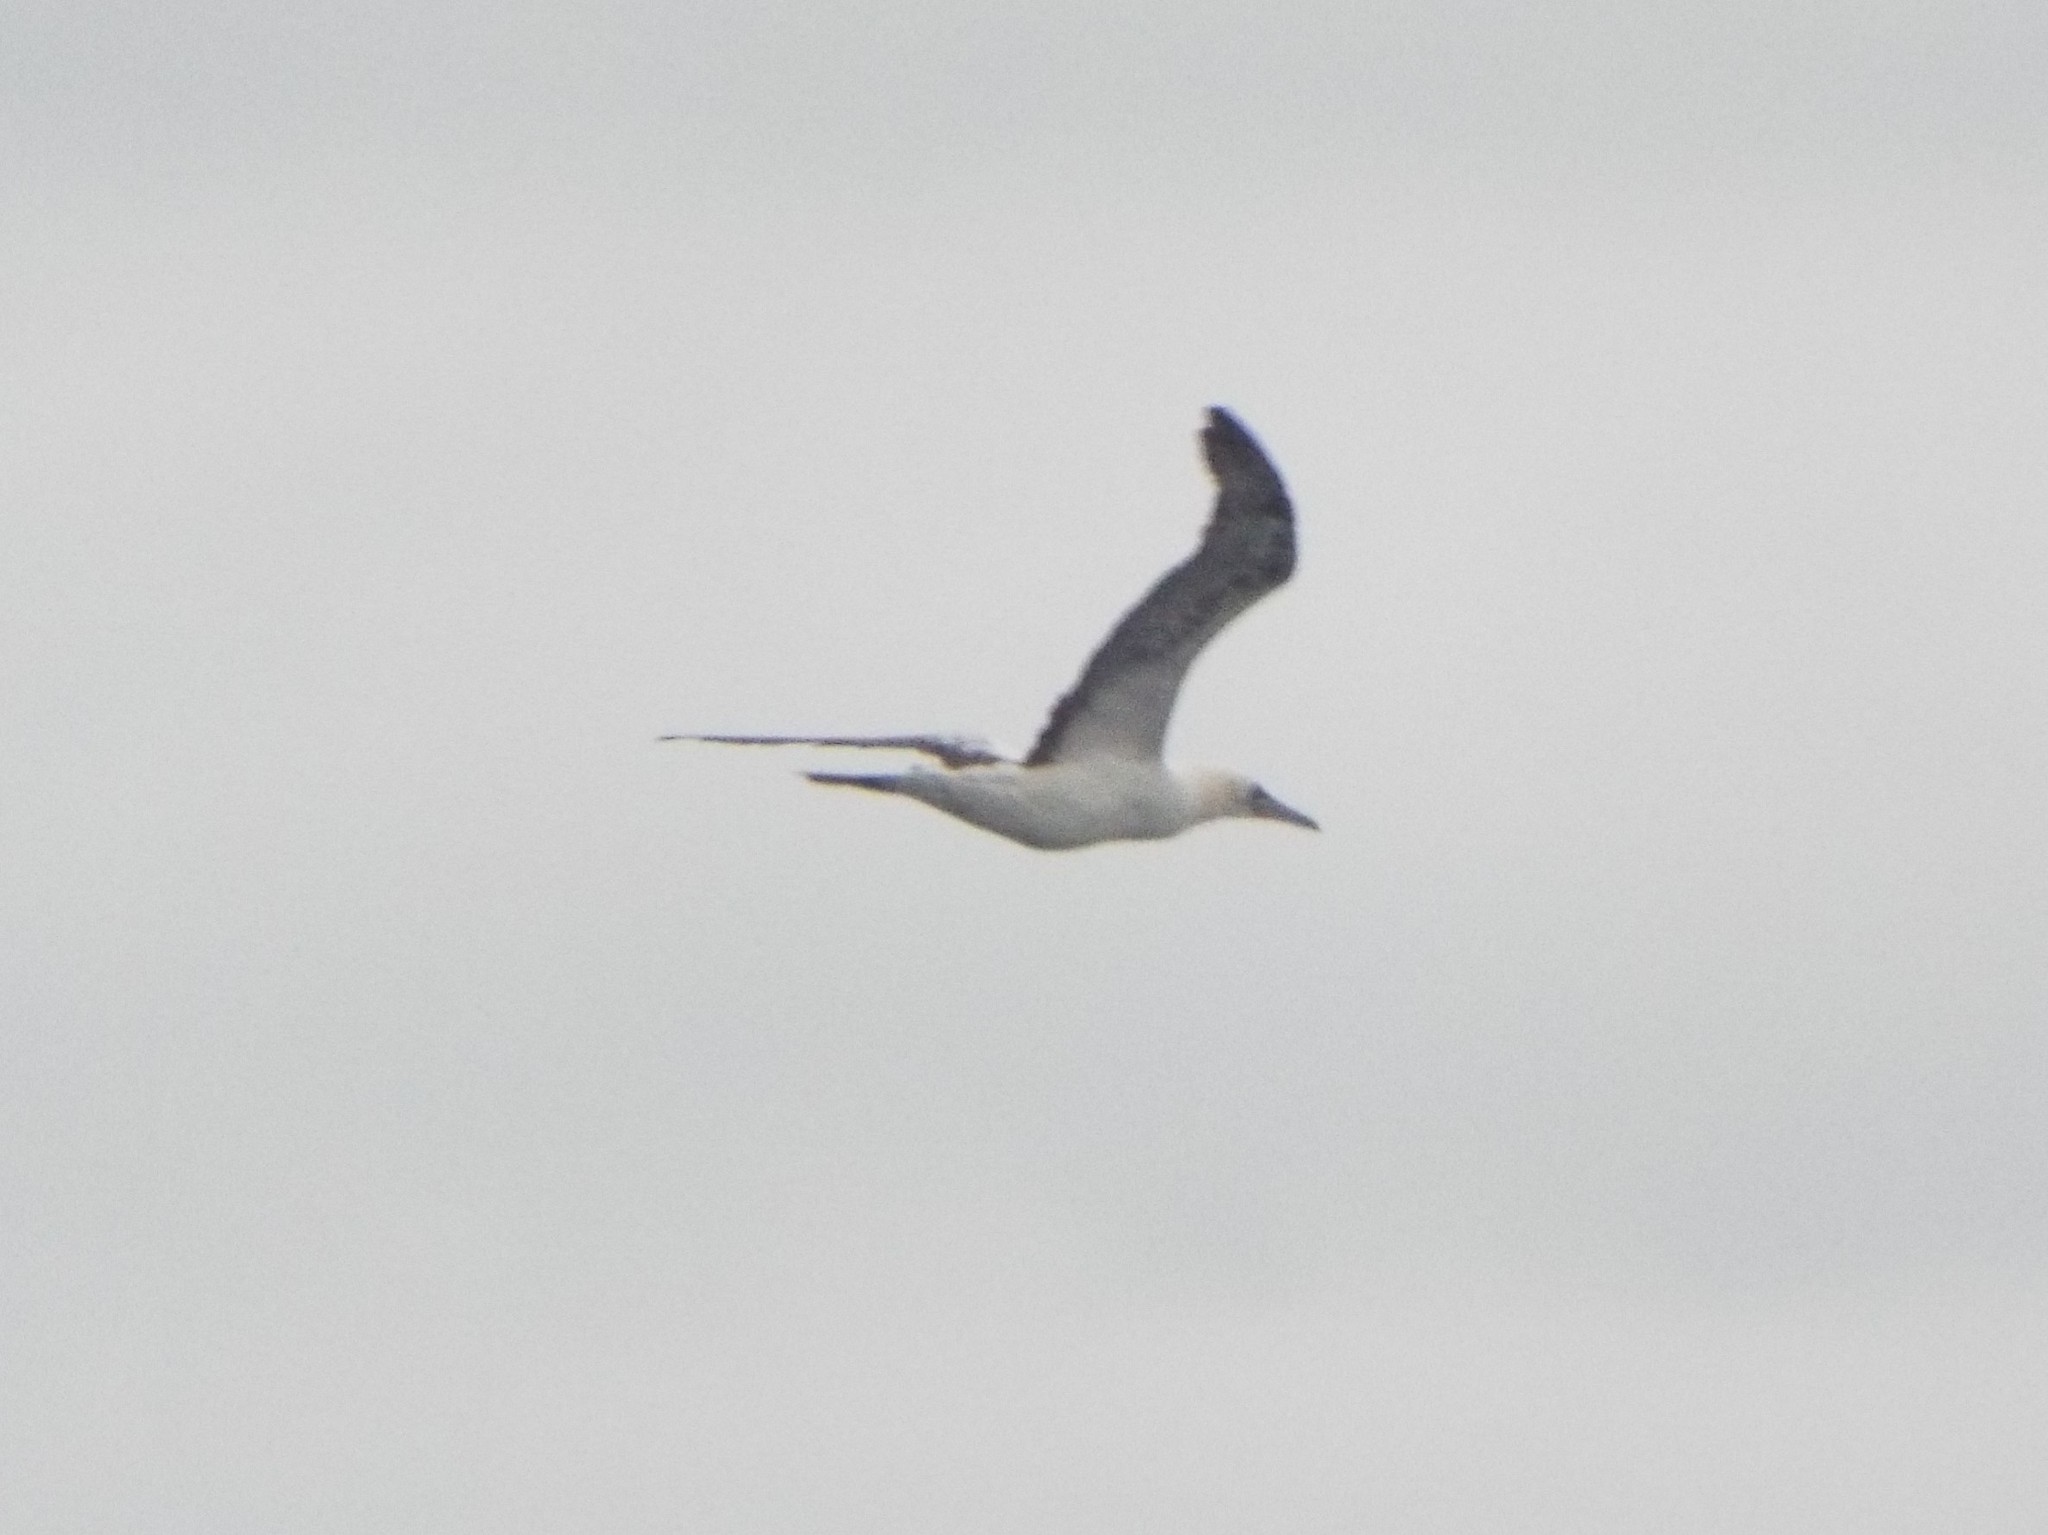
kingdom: Animalia
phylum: Chordata
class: Aves
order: Suliformes
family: Sulidae
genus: Morus
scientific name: Morus bassanus
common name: Northern gannet
